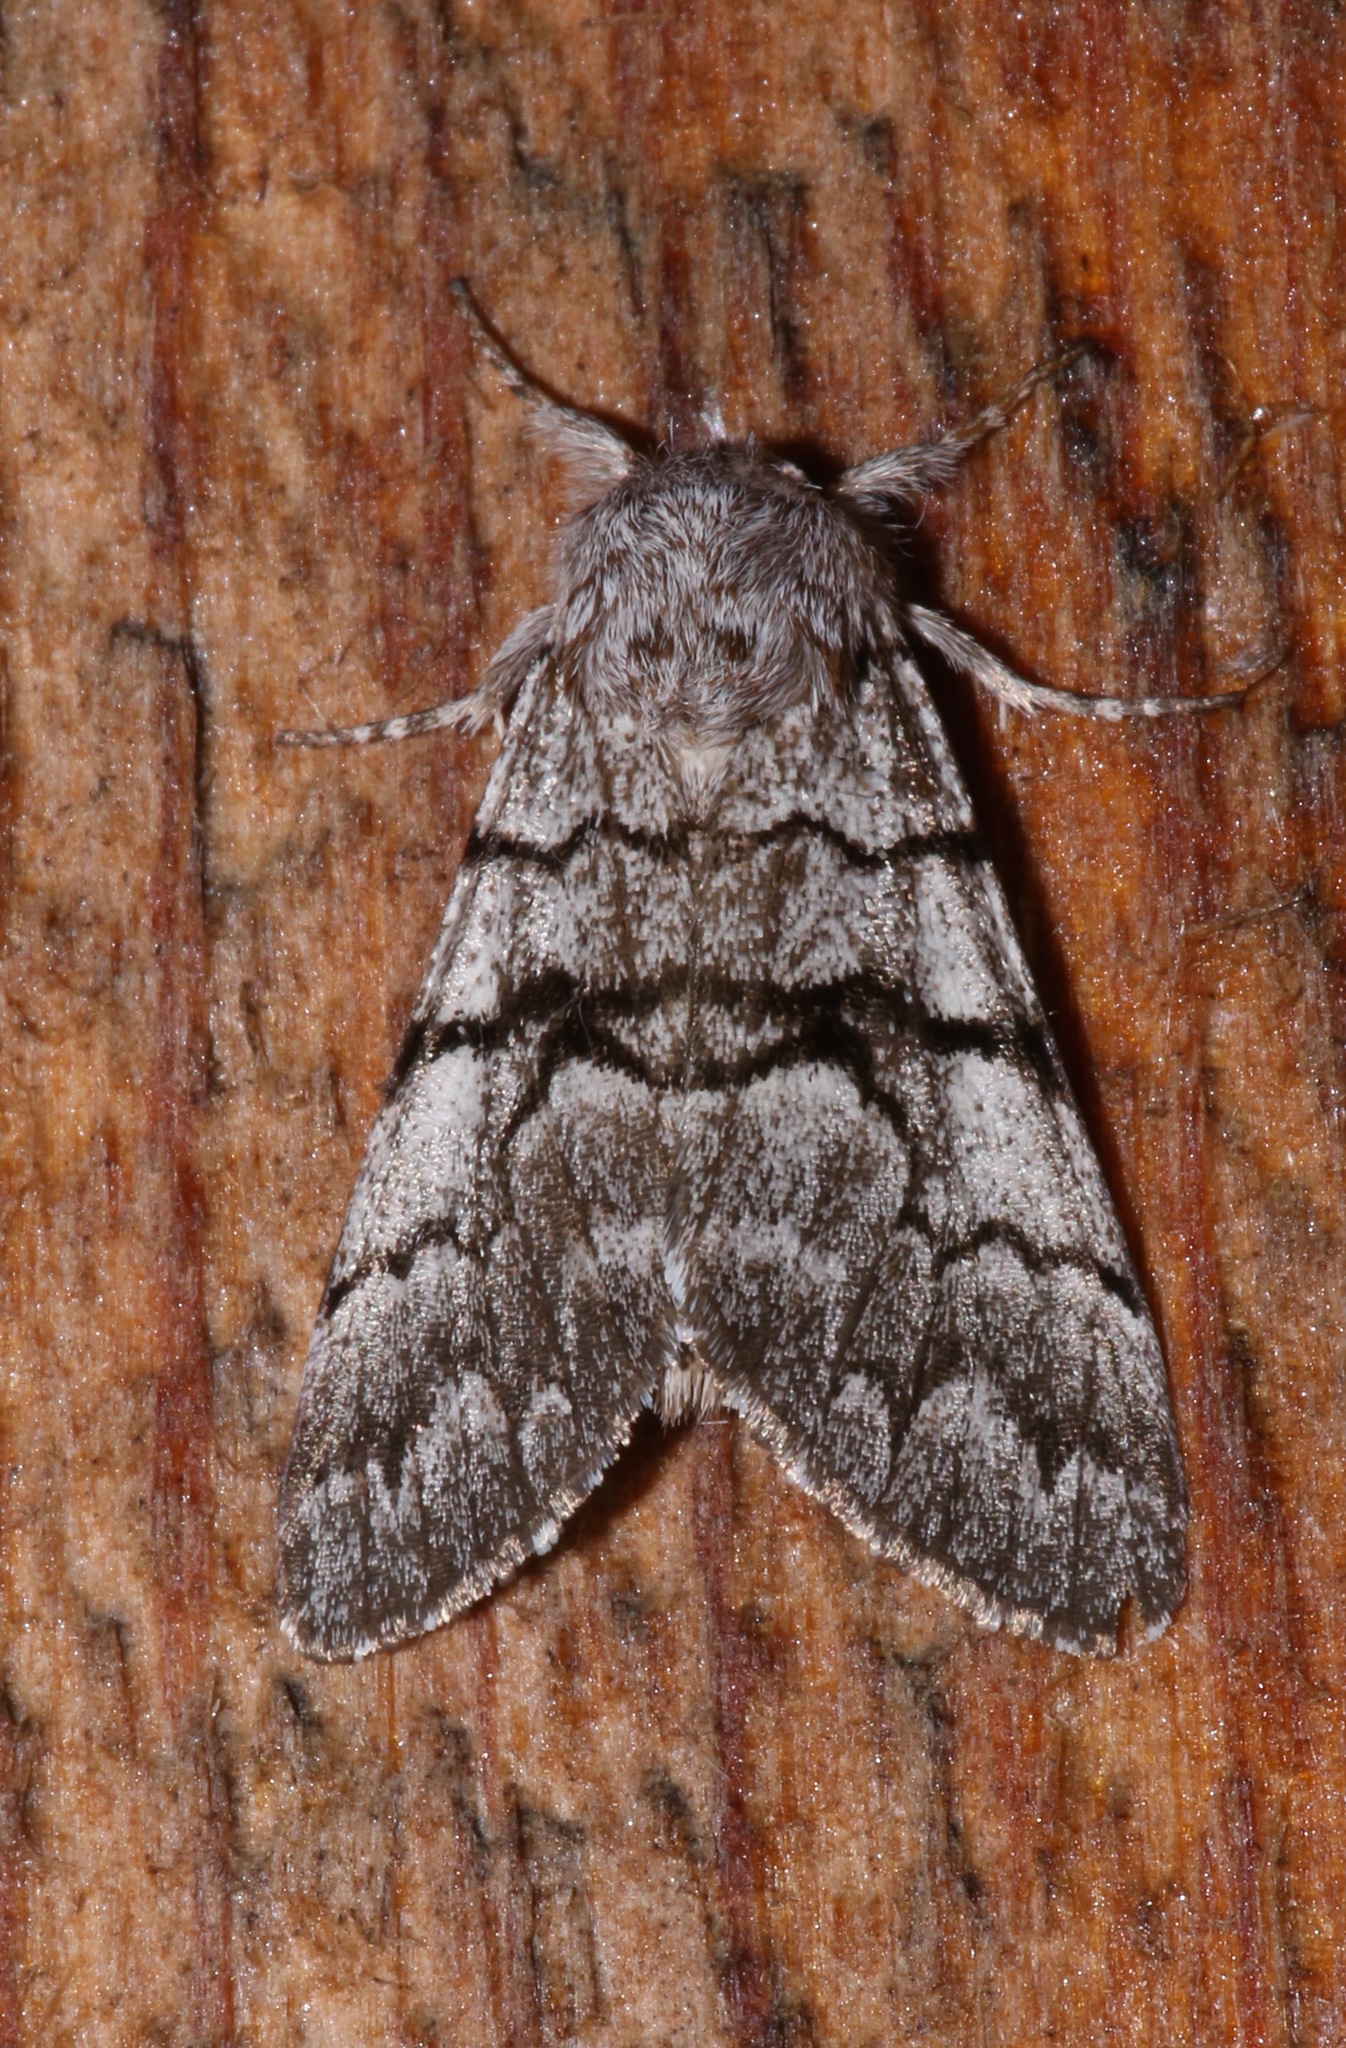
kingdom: Animalia
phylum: Arthropoda
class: Insecta
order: Lepidoptera
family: Noctuidae
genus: Panthea
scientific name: Panthea furcilla
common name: Eastern panthea moth
